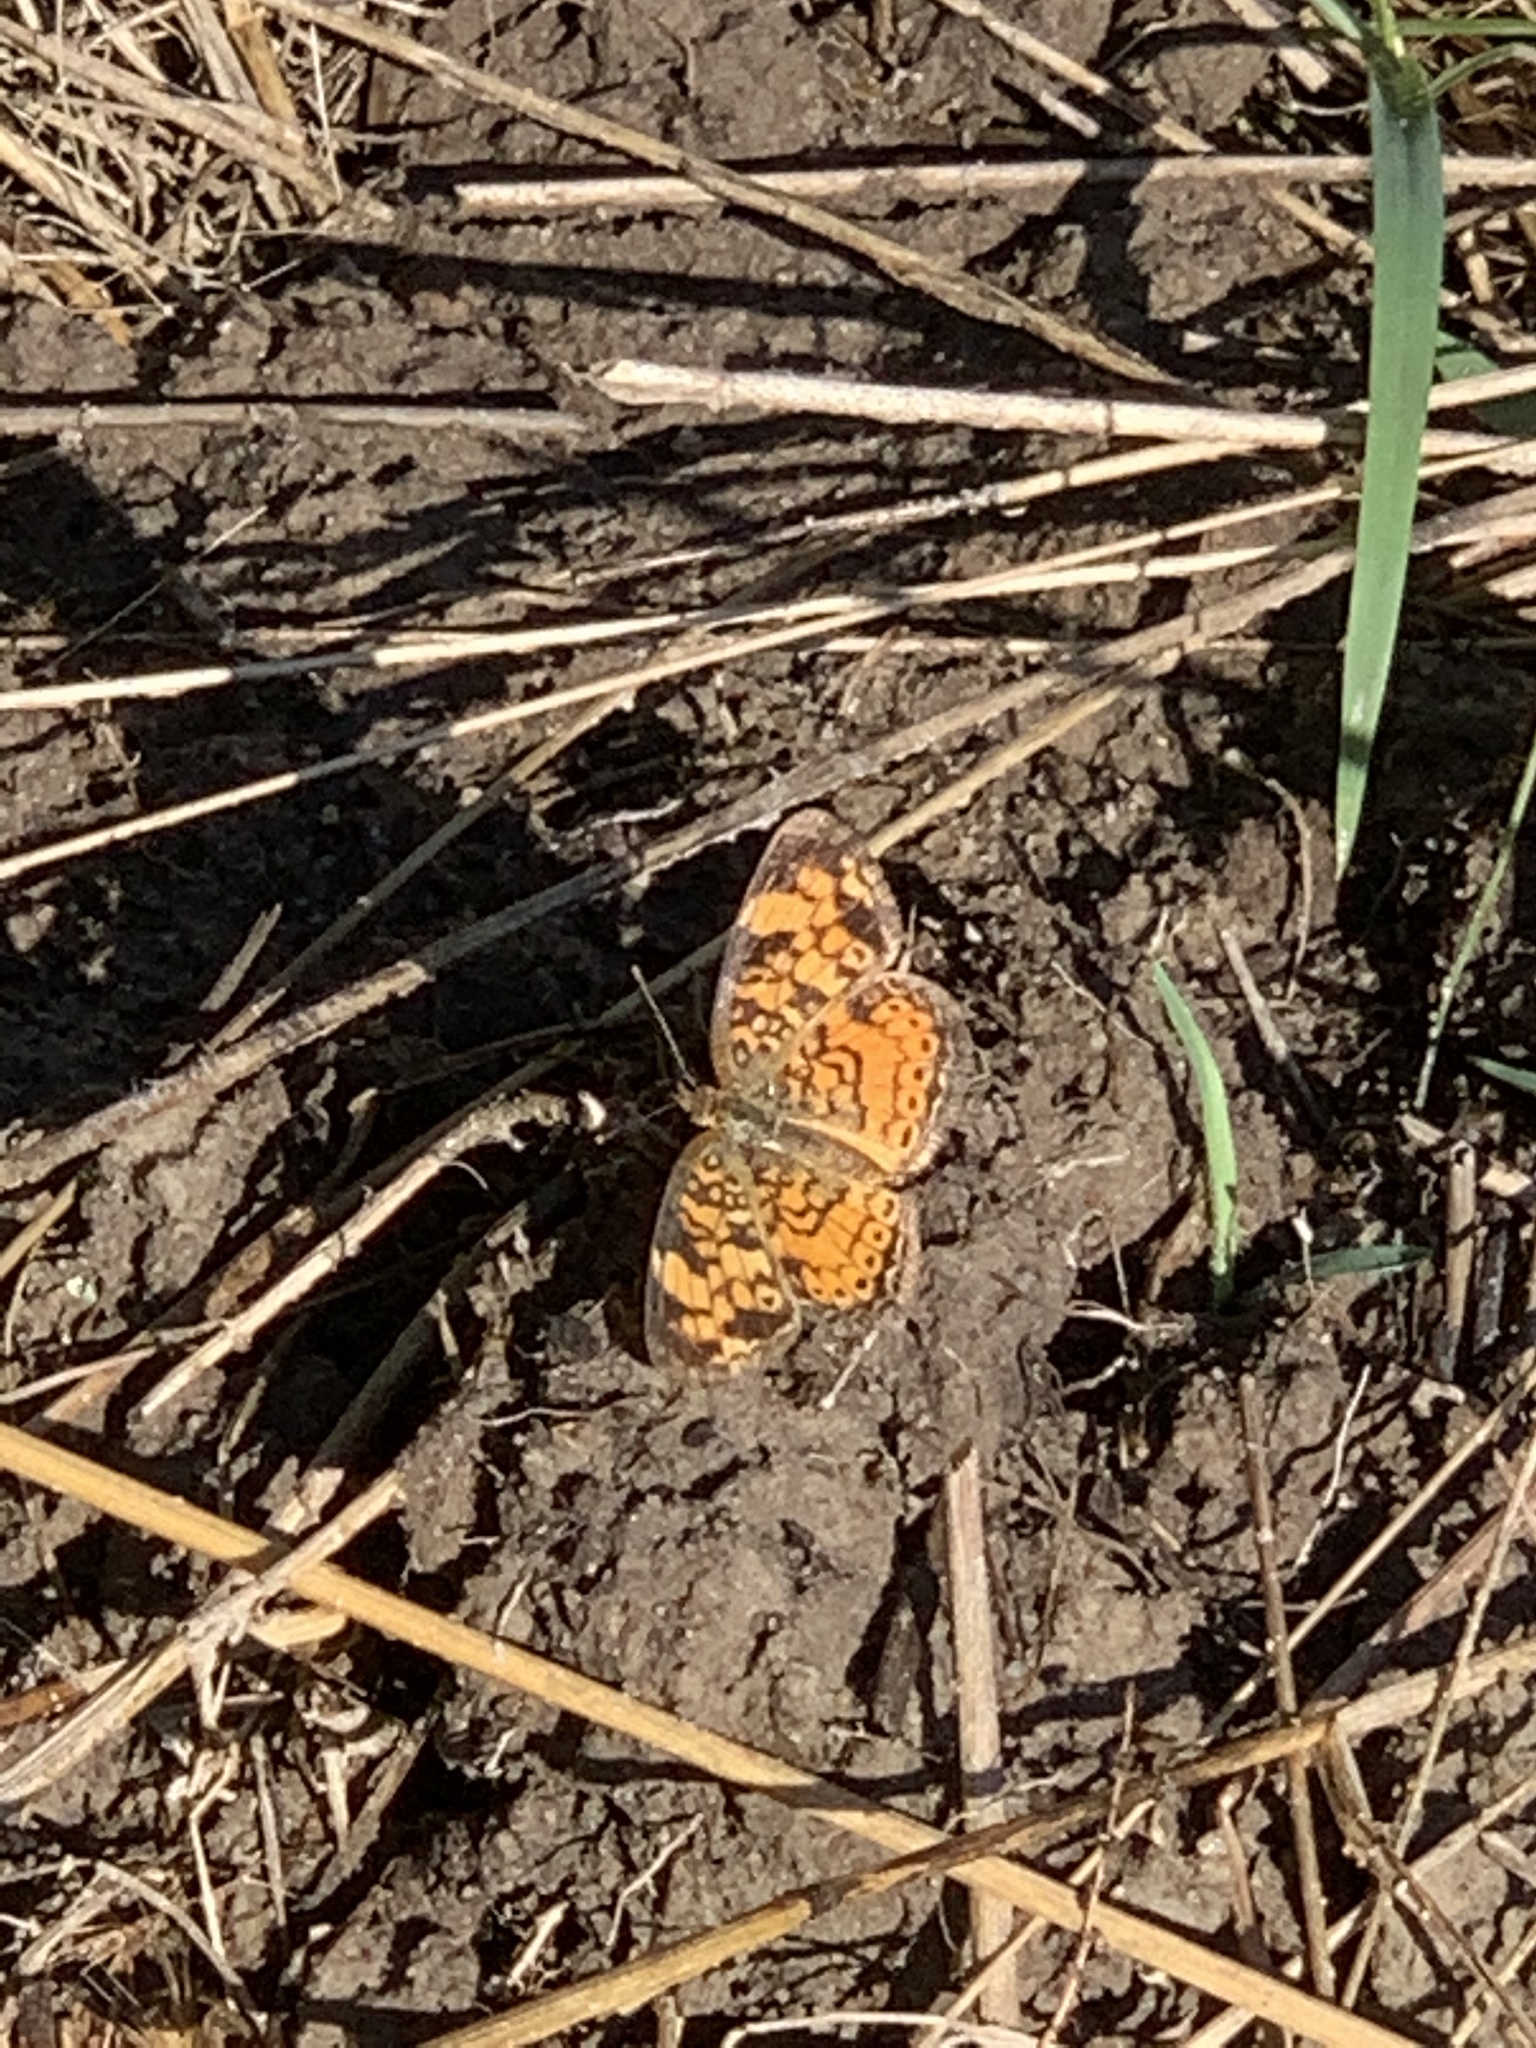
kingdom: Animalia
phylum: Arthropoda
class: Insecta
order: Lepidoptera
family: Nymphalidae
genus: Phyciodes
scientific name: Phyciodes tharos
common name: Pearl crescent
